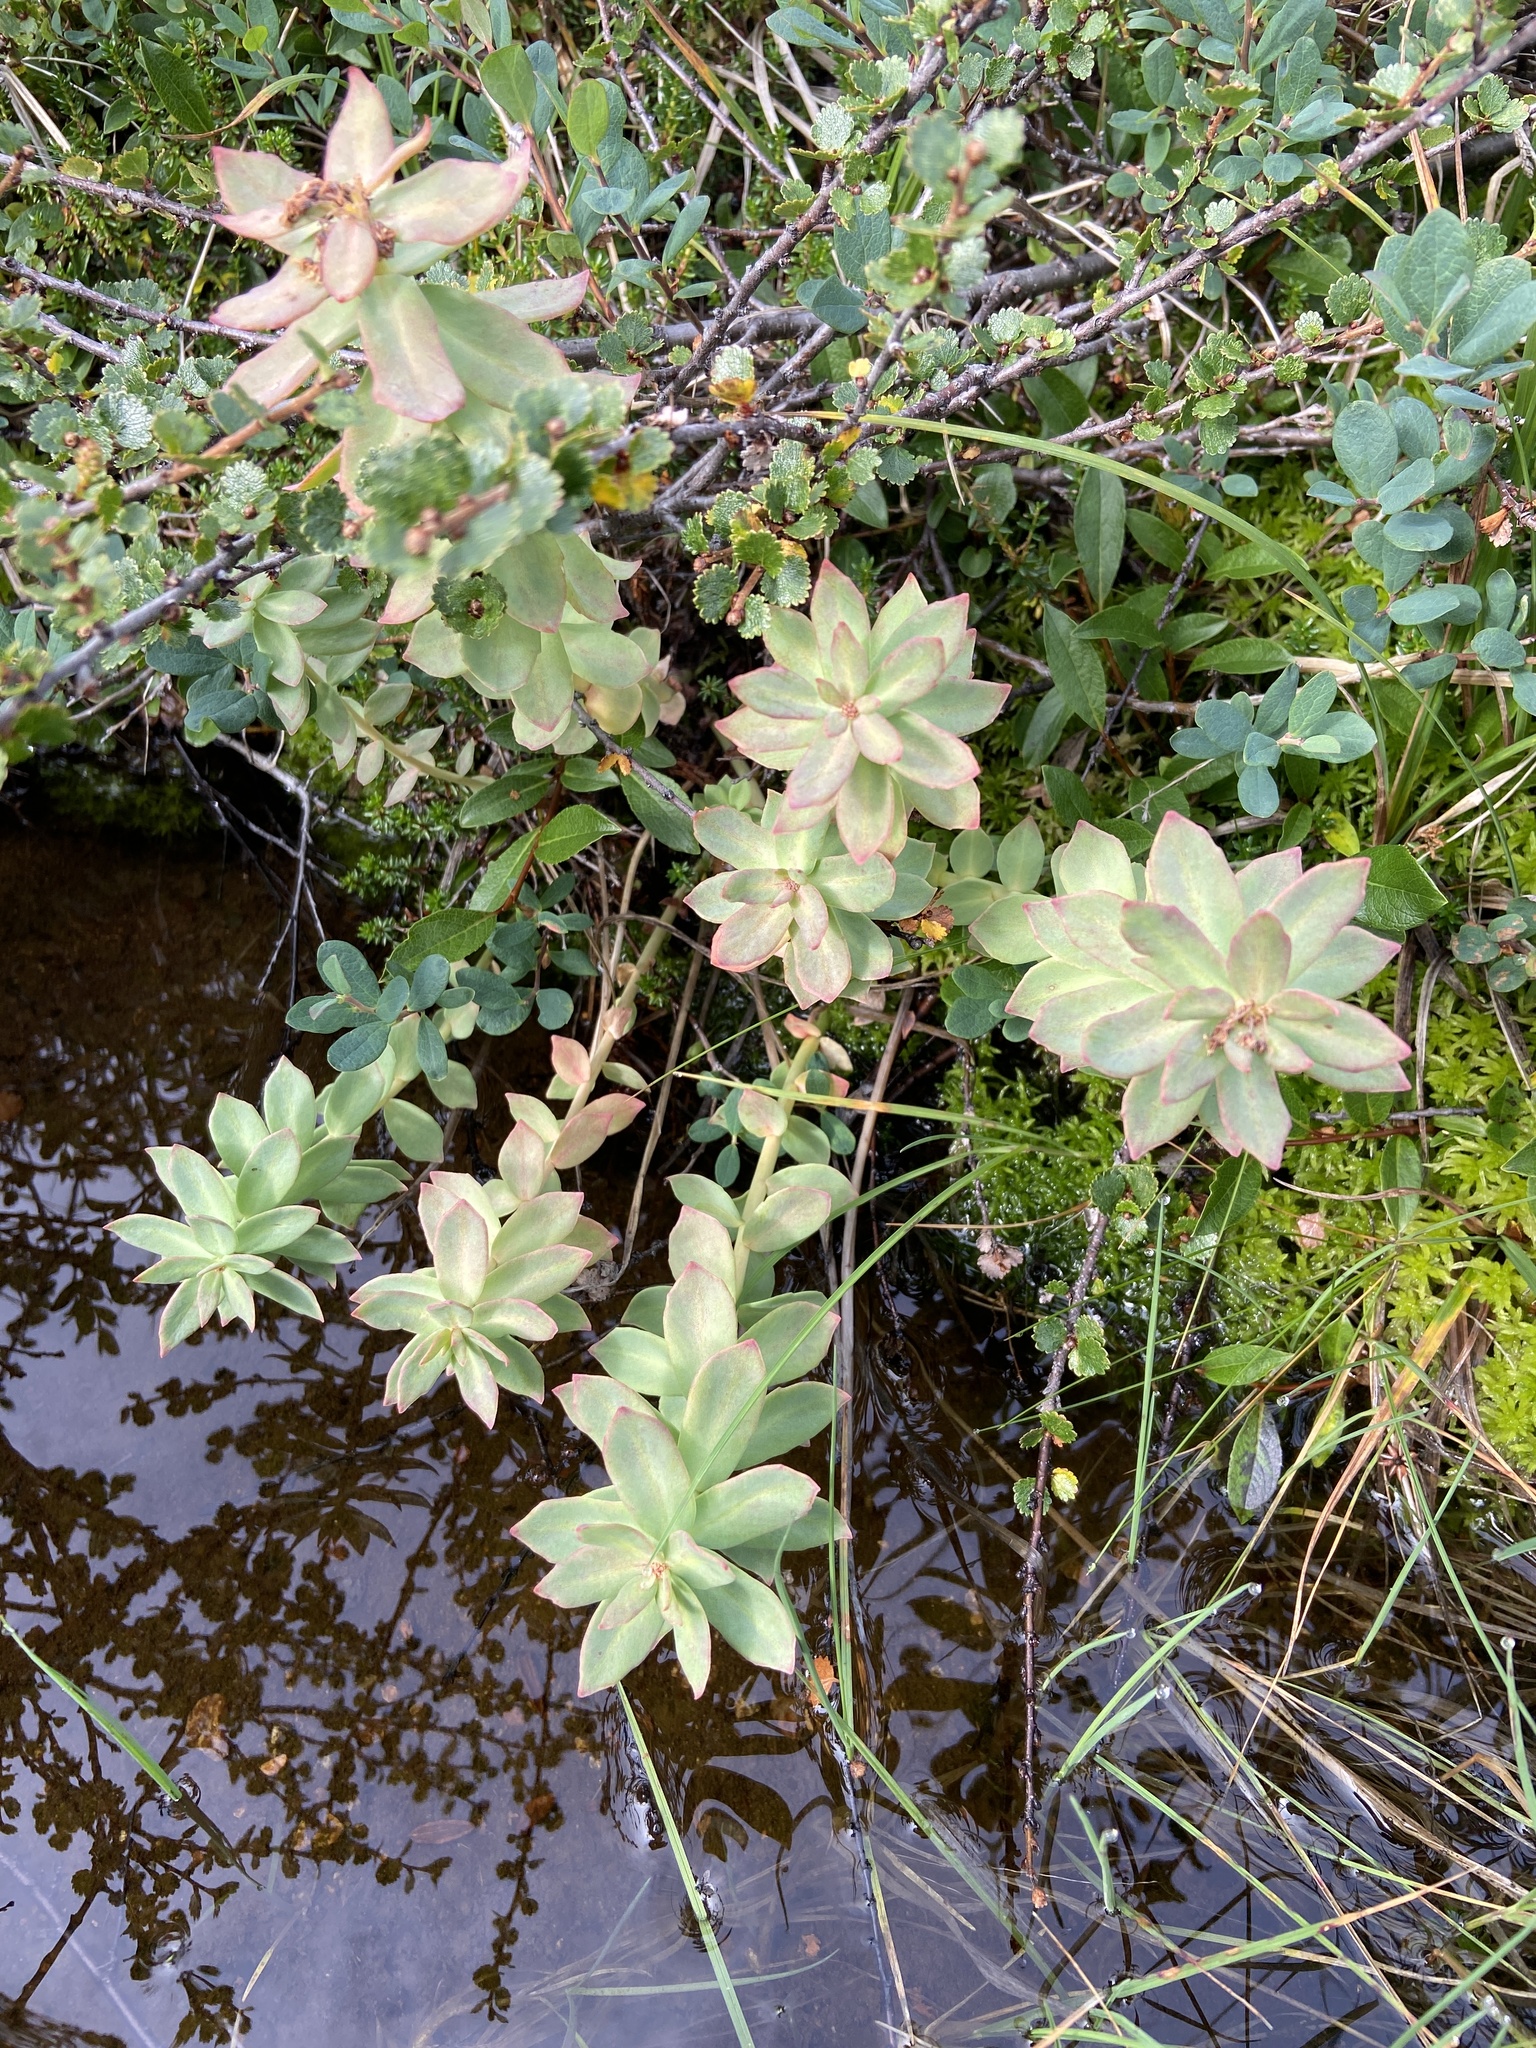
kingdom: Plantae
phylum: Tracheophyta
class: Magnoliopsida
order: Saxifragales
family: Crassulaceae
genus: Rhodiola
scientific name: Rhodiola rosea
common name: Roseroot
